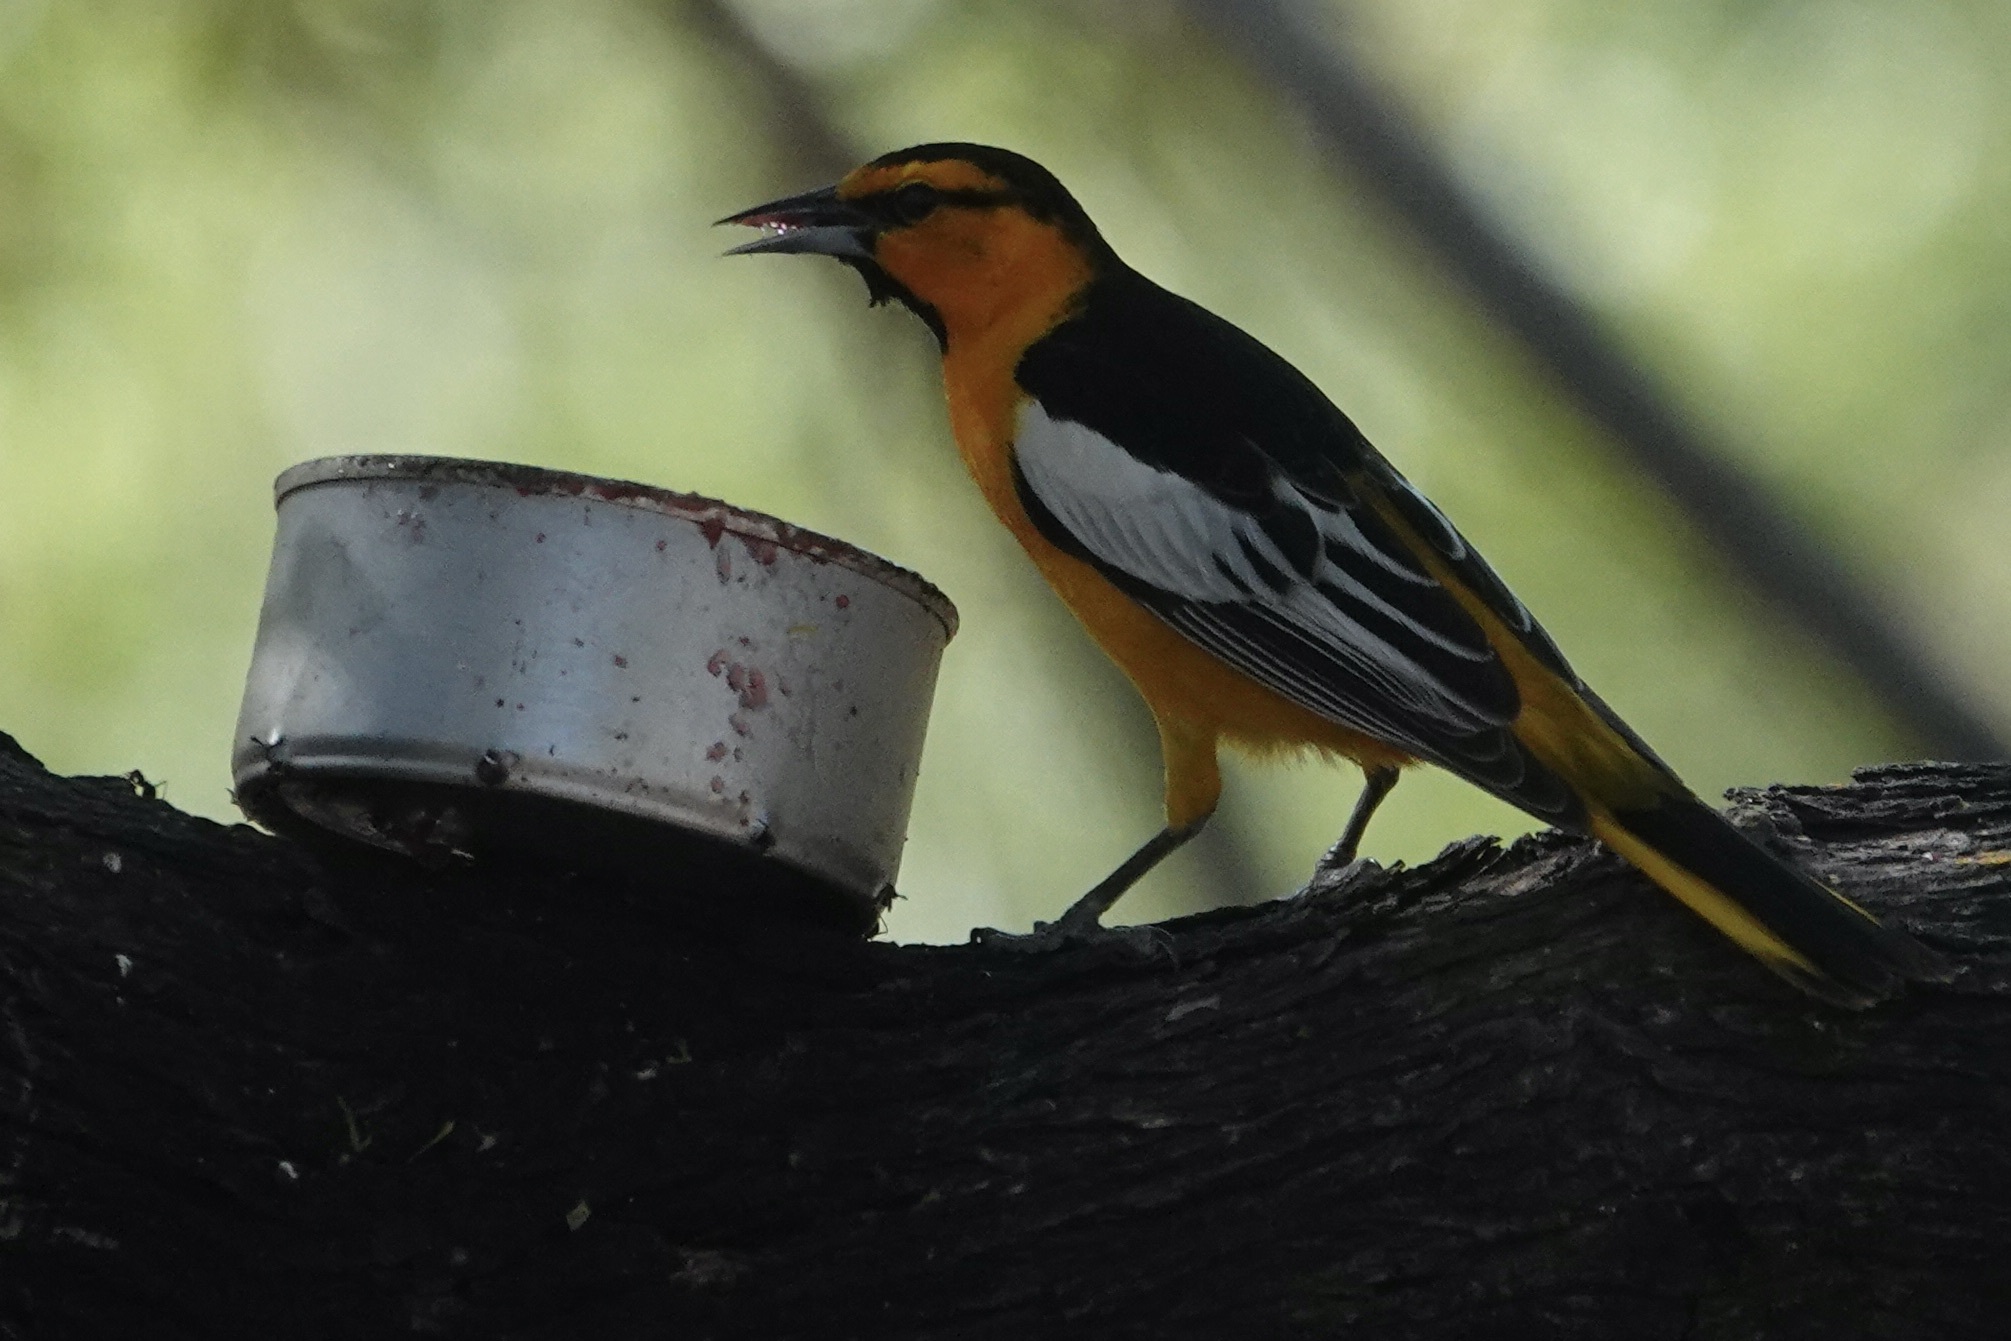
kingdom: Animalia
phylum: Chordata
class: Aves
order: Passeriformes
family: Icteridae
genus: Icterus
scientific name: Icterus bullockii
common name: Bullock's oriole
